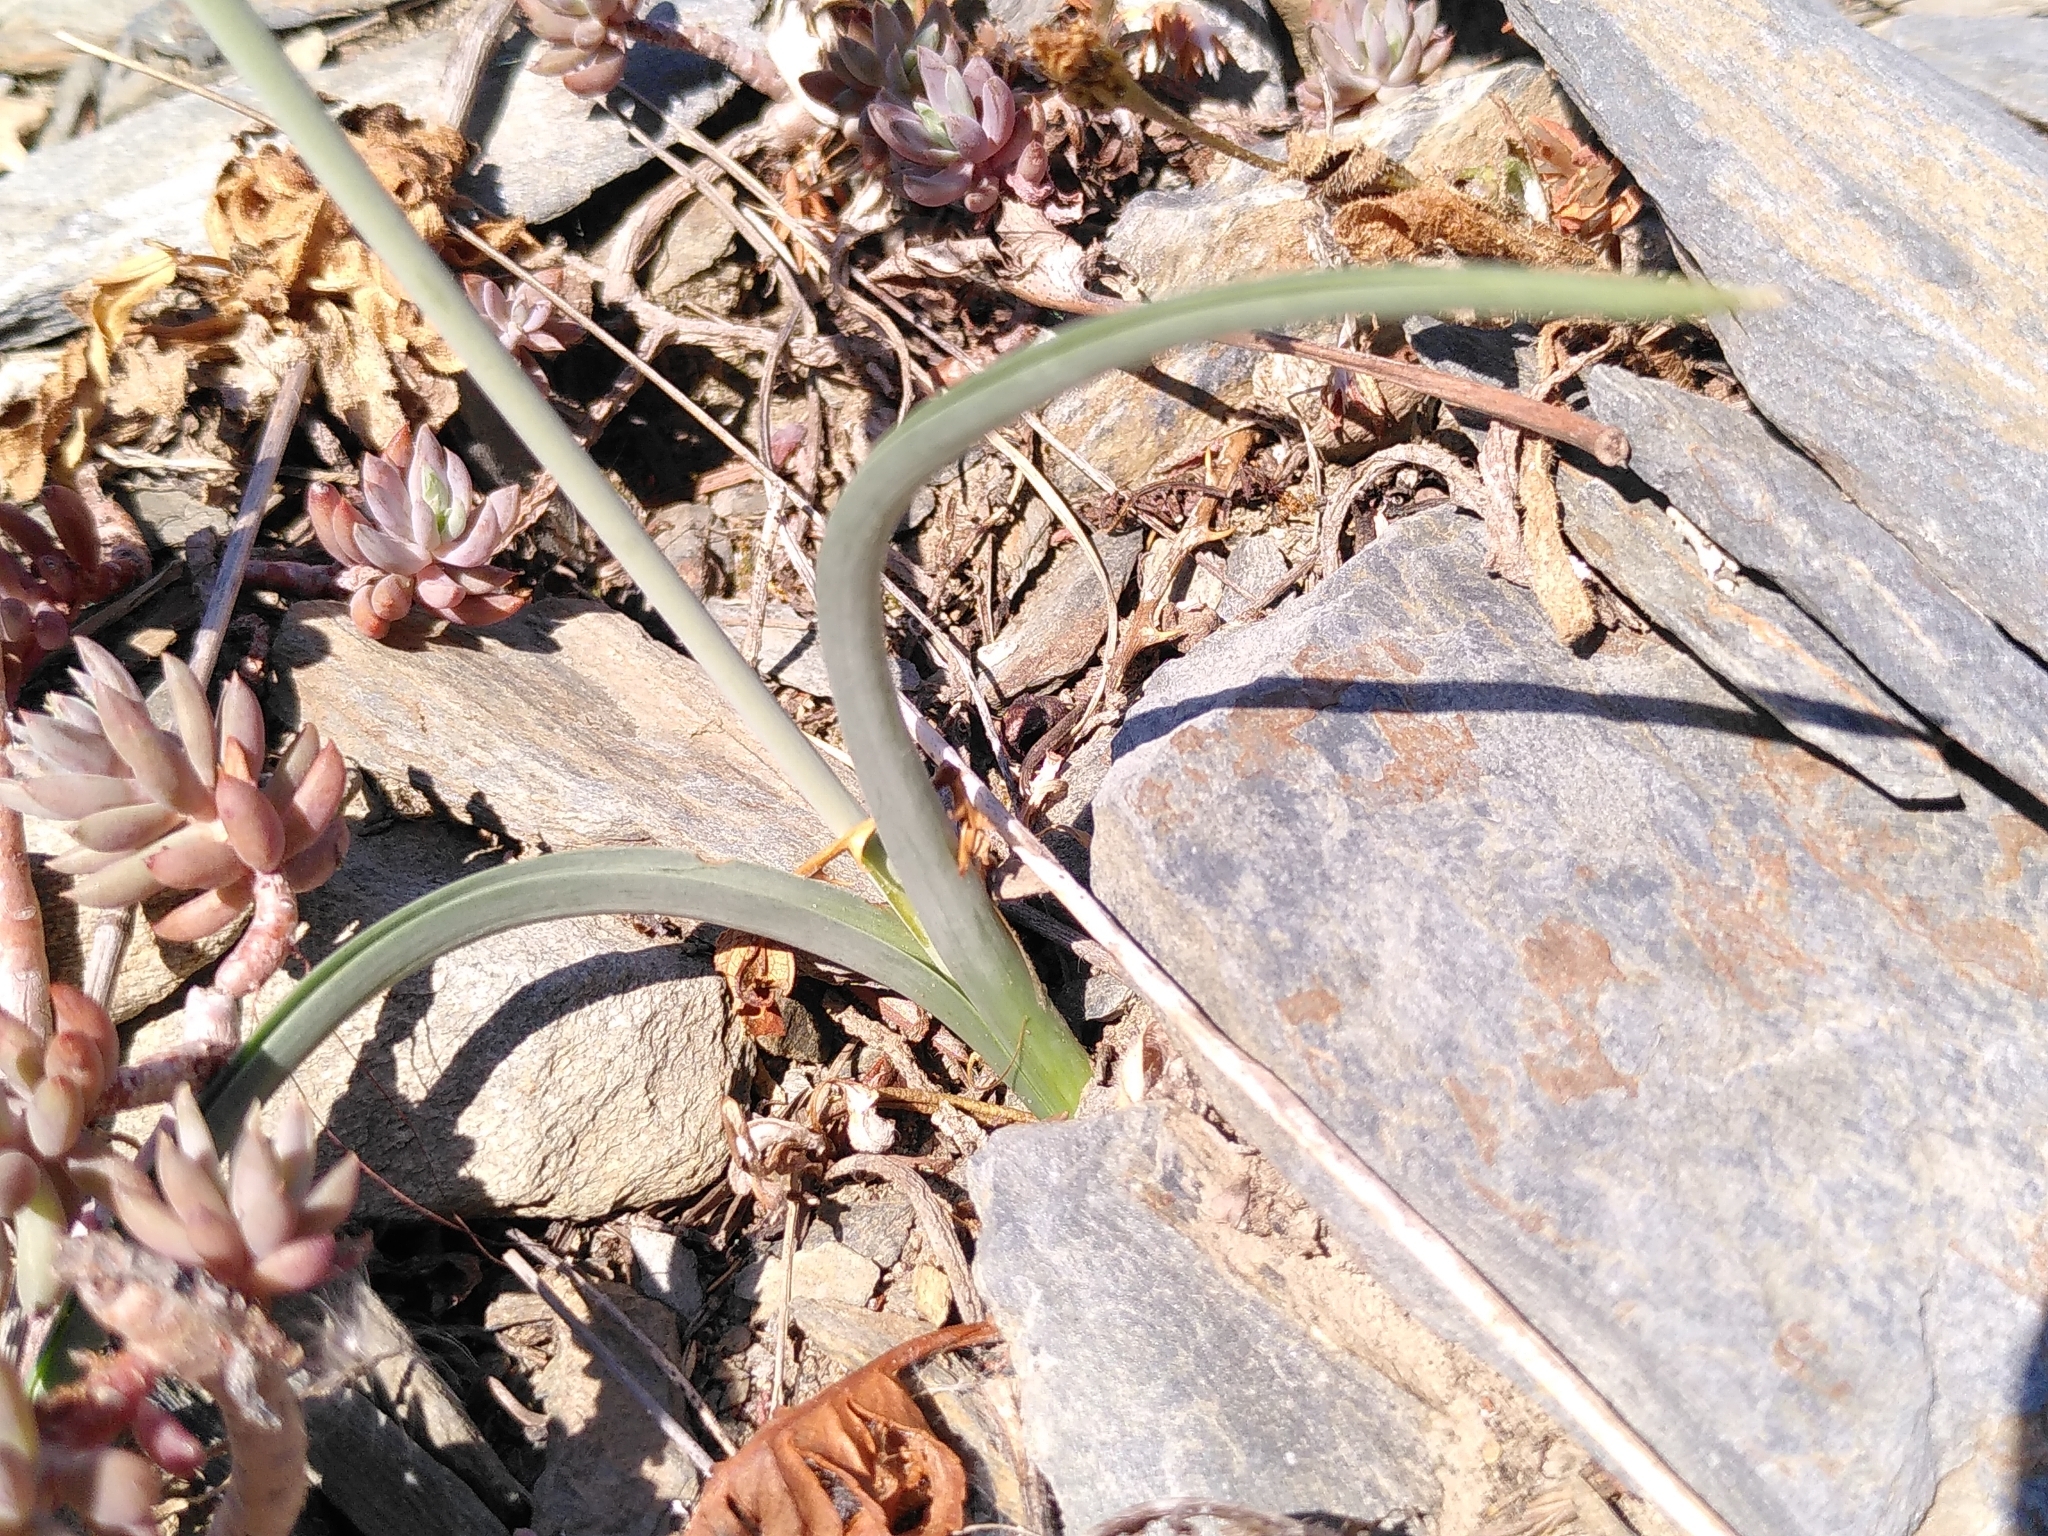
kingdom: Plantae
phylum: Tracheophyta
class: Liliopsida
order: Asparagales
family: Asparagaceae
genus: Dipcadi
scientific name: Dipcadi serotinum
